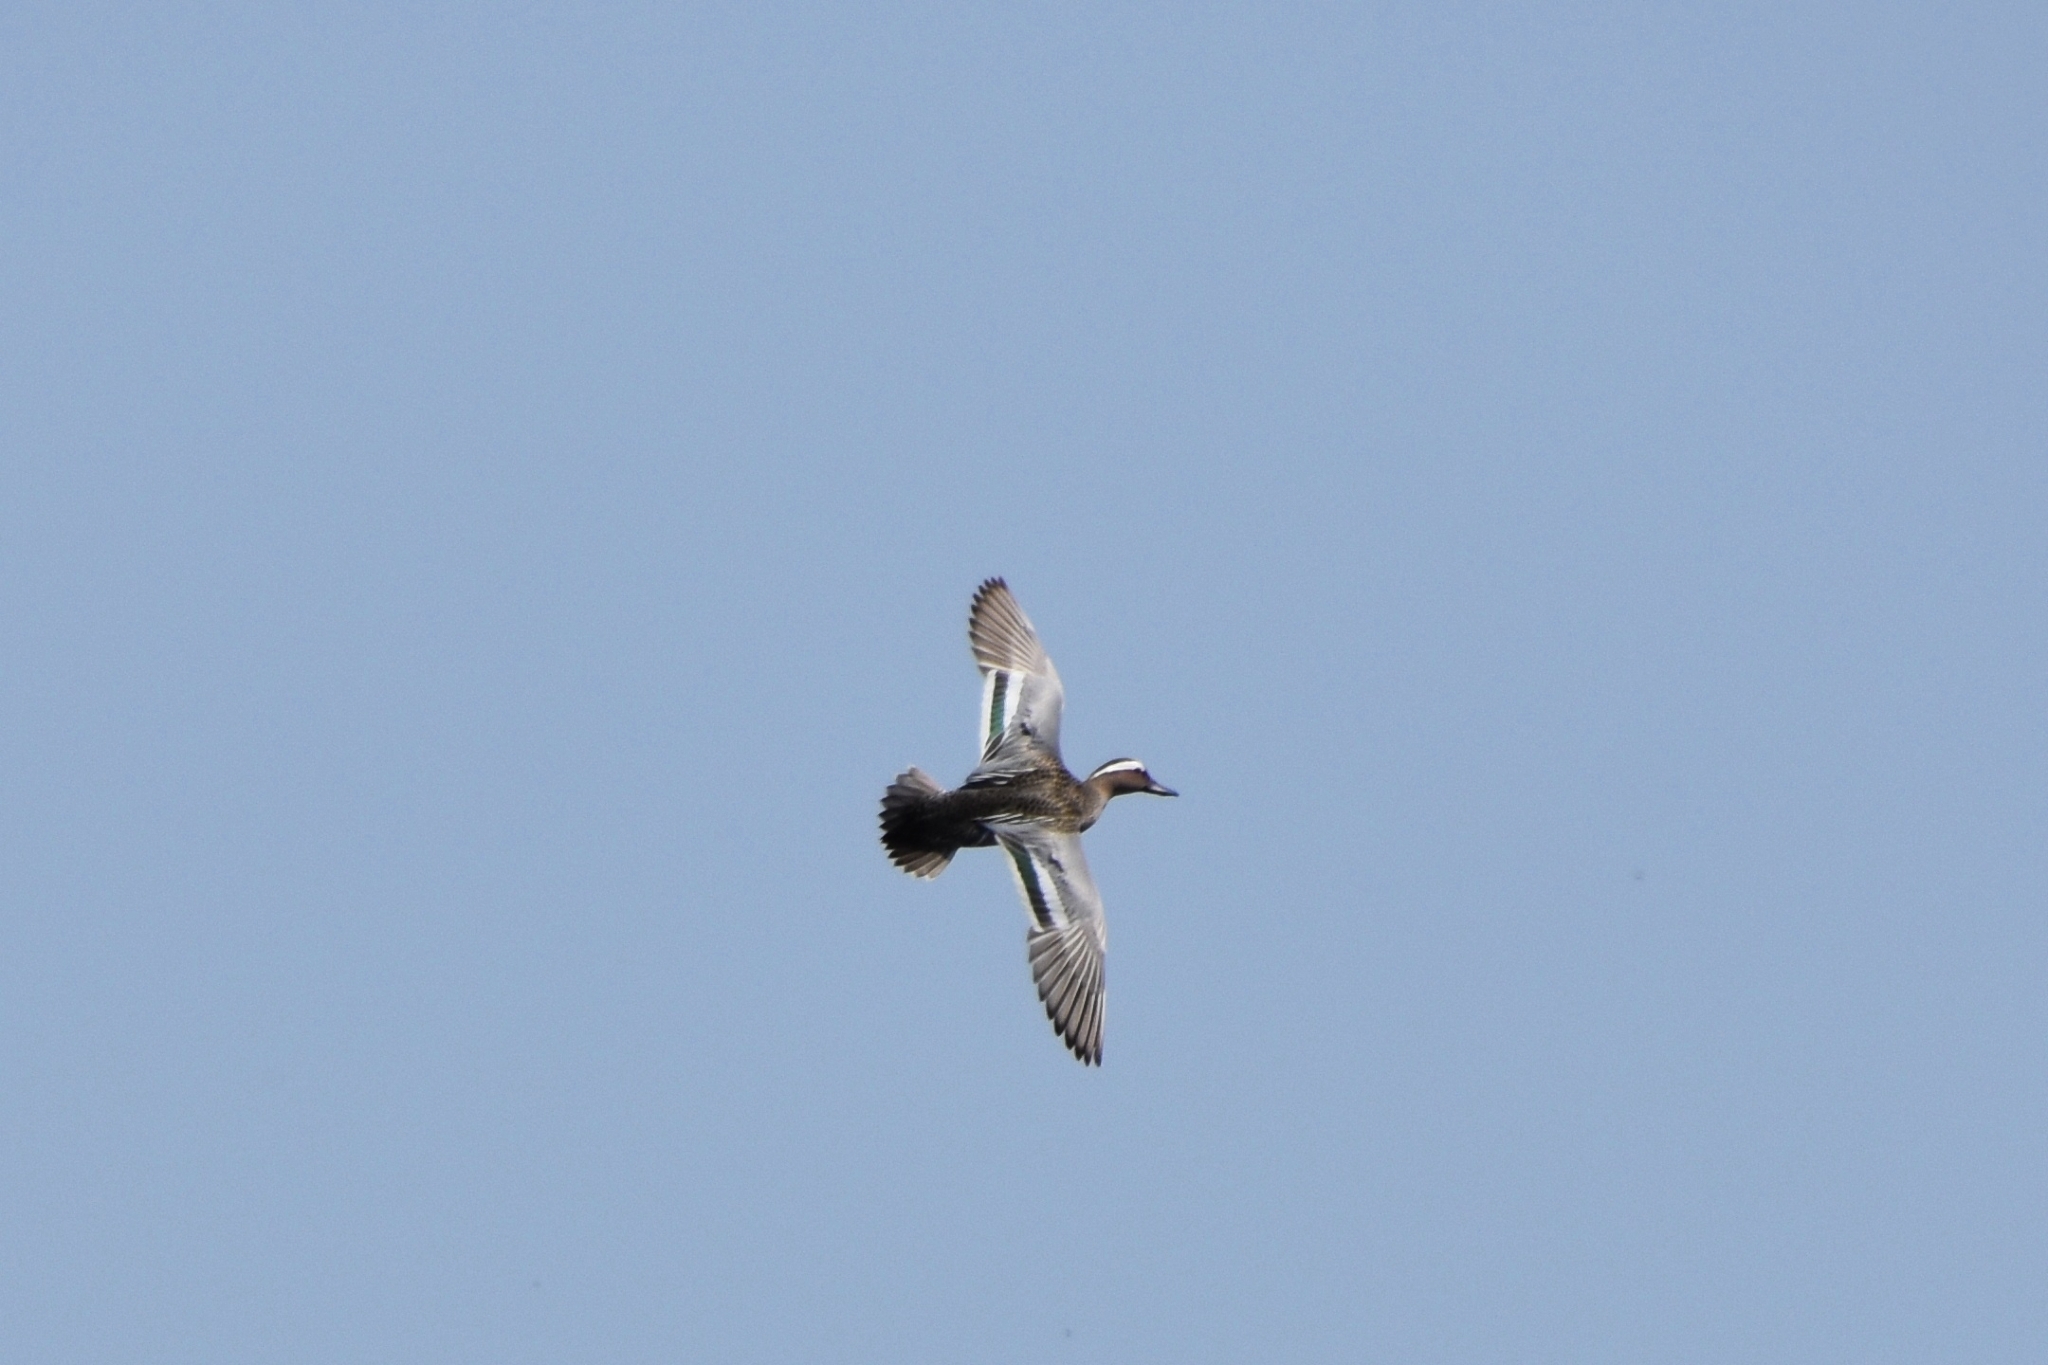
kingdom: Animalia
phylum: Chordata
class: Aves
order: Anseriformes
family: Anatidae
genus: Spatula
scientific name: Spatula querquedula
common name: Garganey
